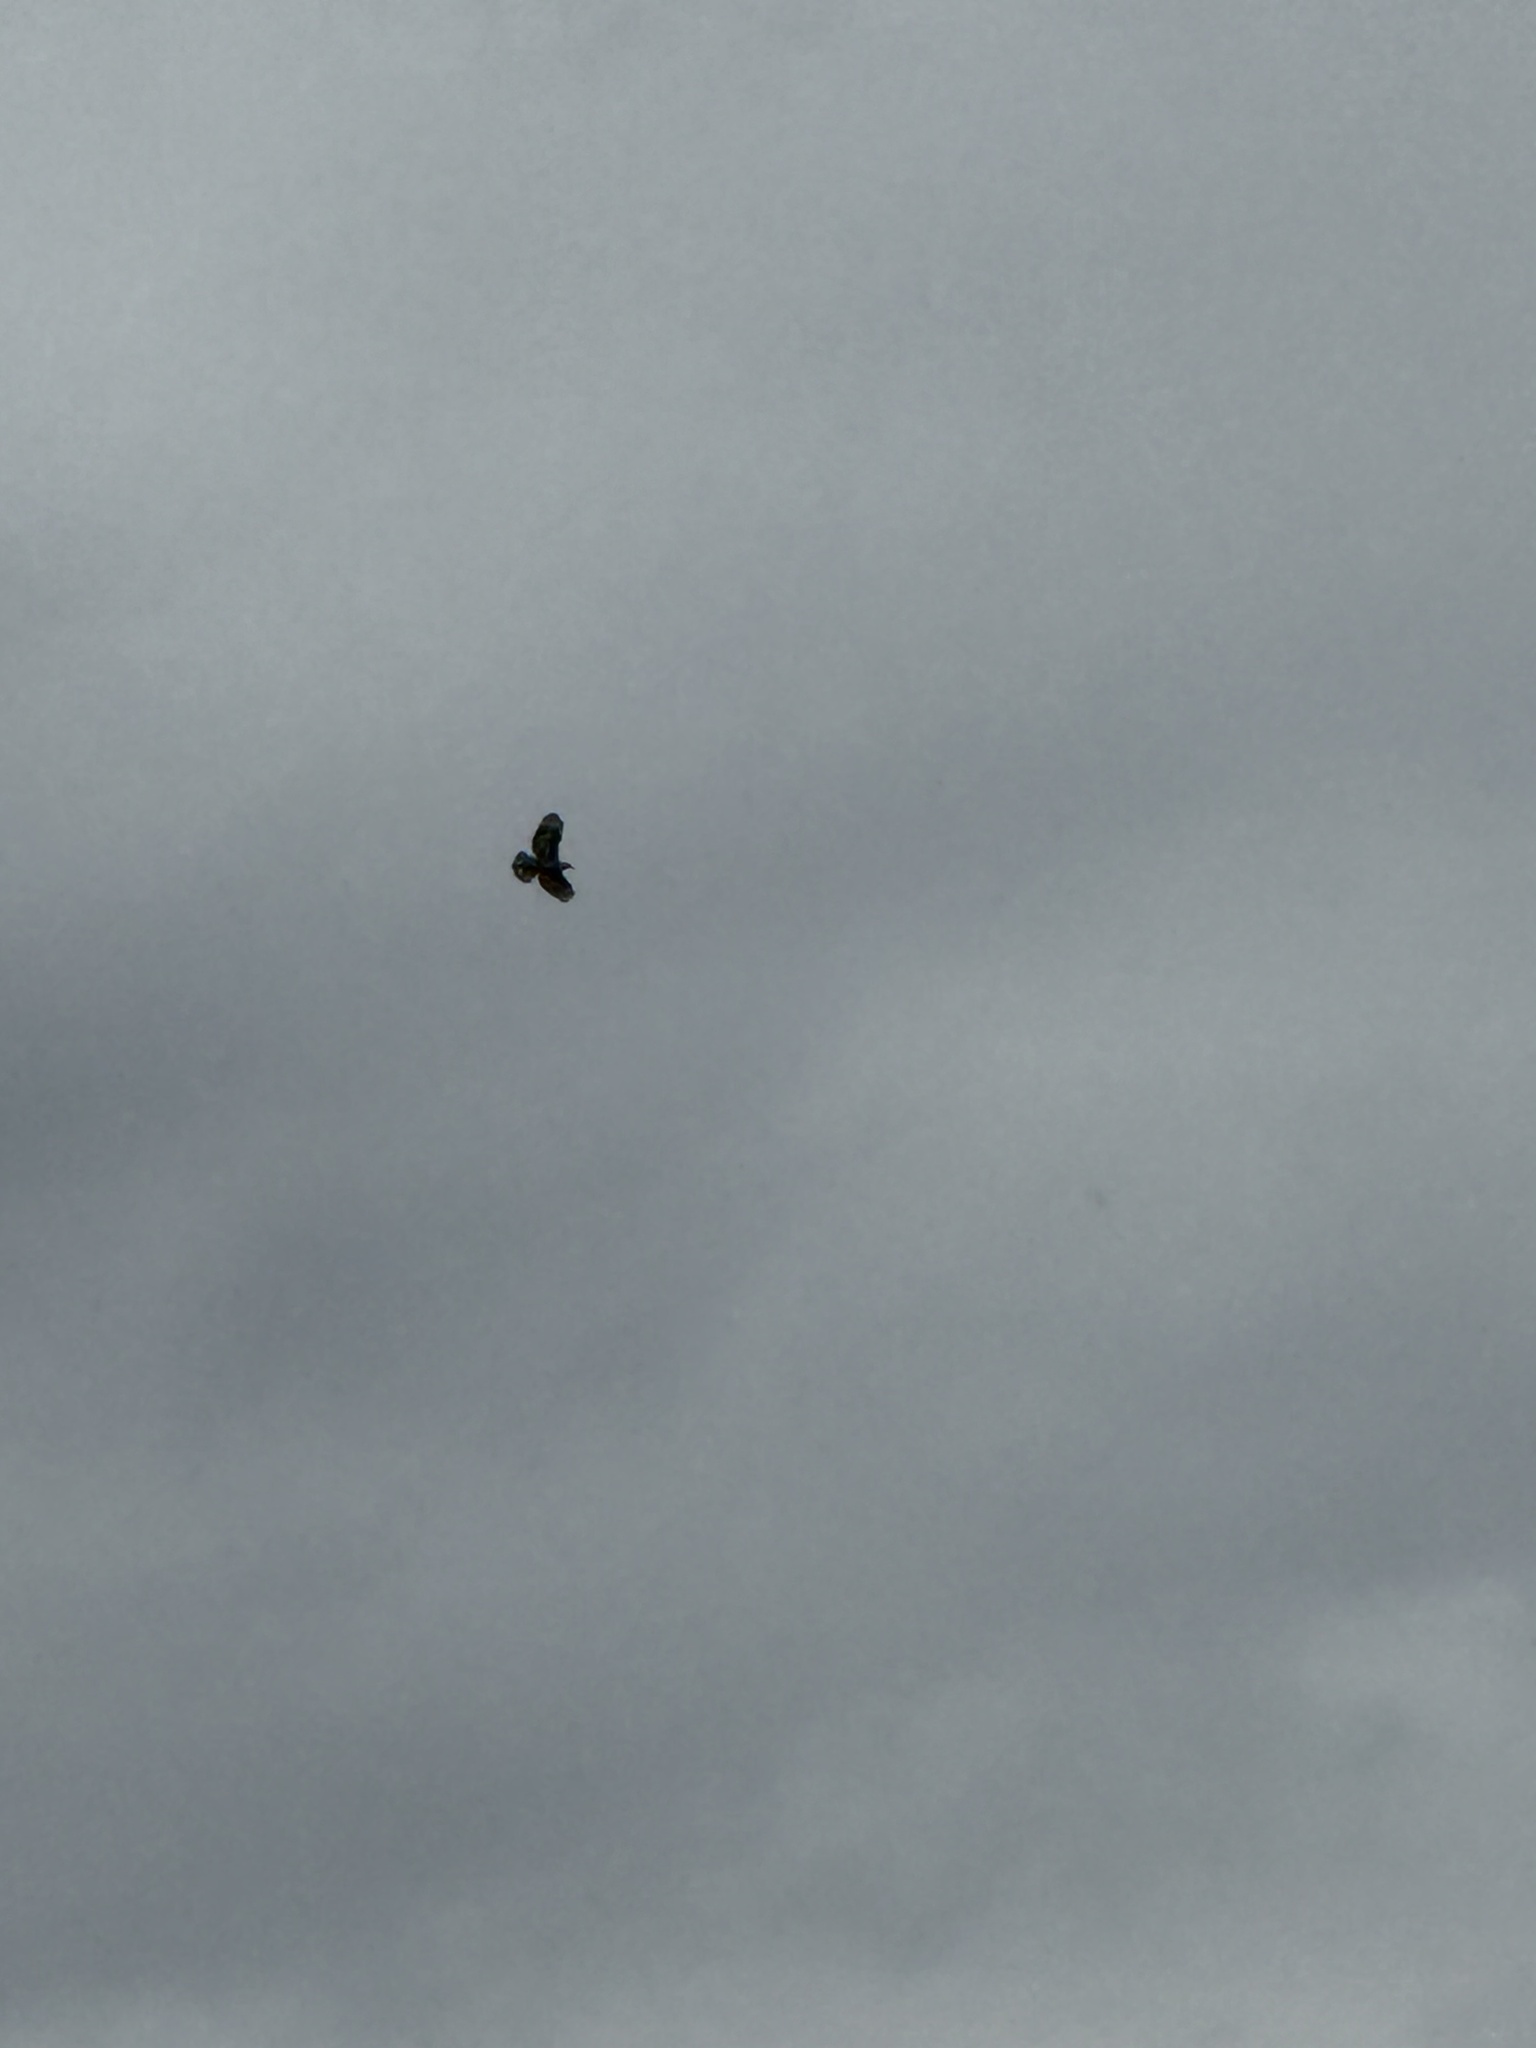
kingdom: Animalia
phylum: Chordata
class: Aves
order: Accipitriformes
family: Accipitridae
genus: Buteo
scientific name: Buteo jamaicensis
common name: Red-tailed hawk
